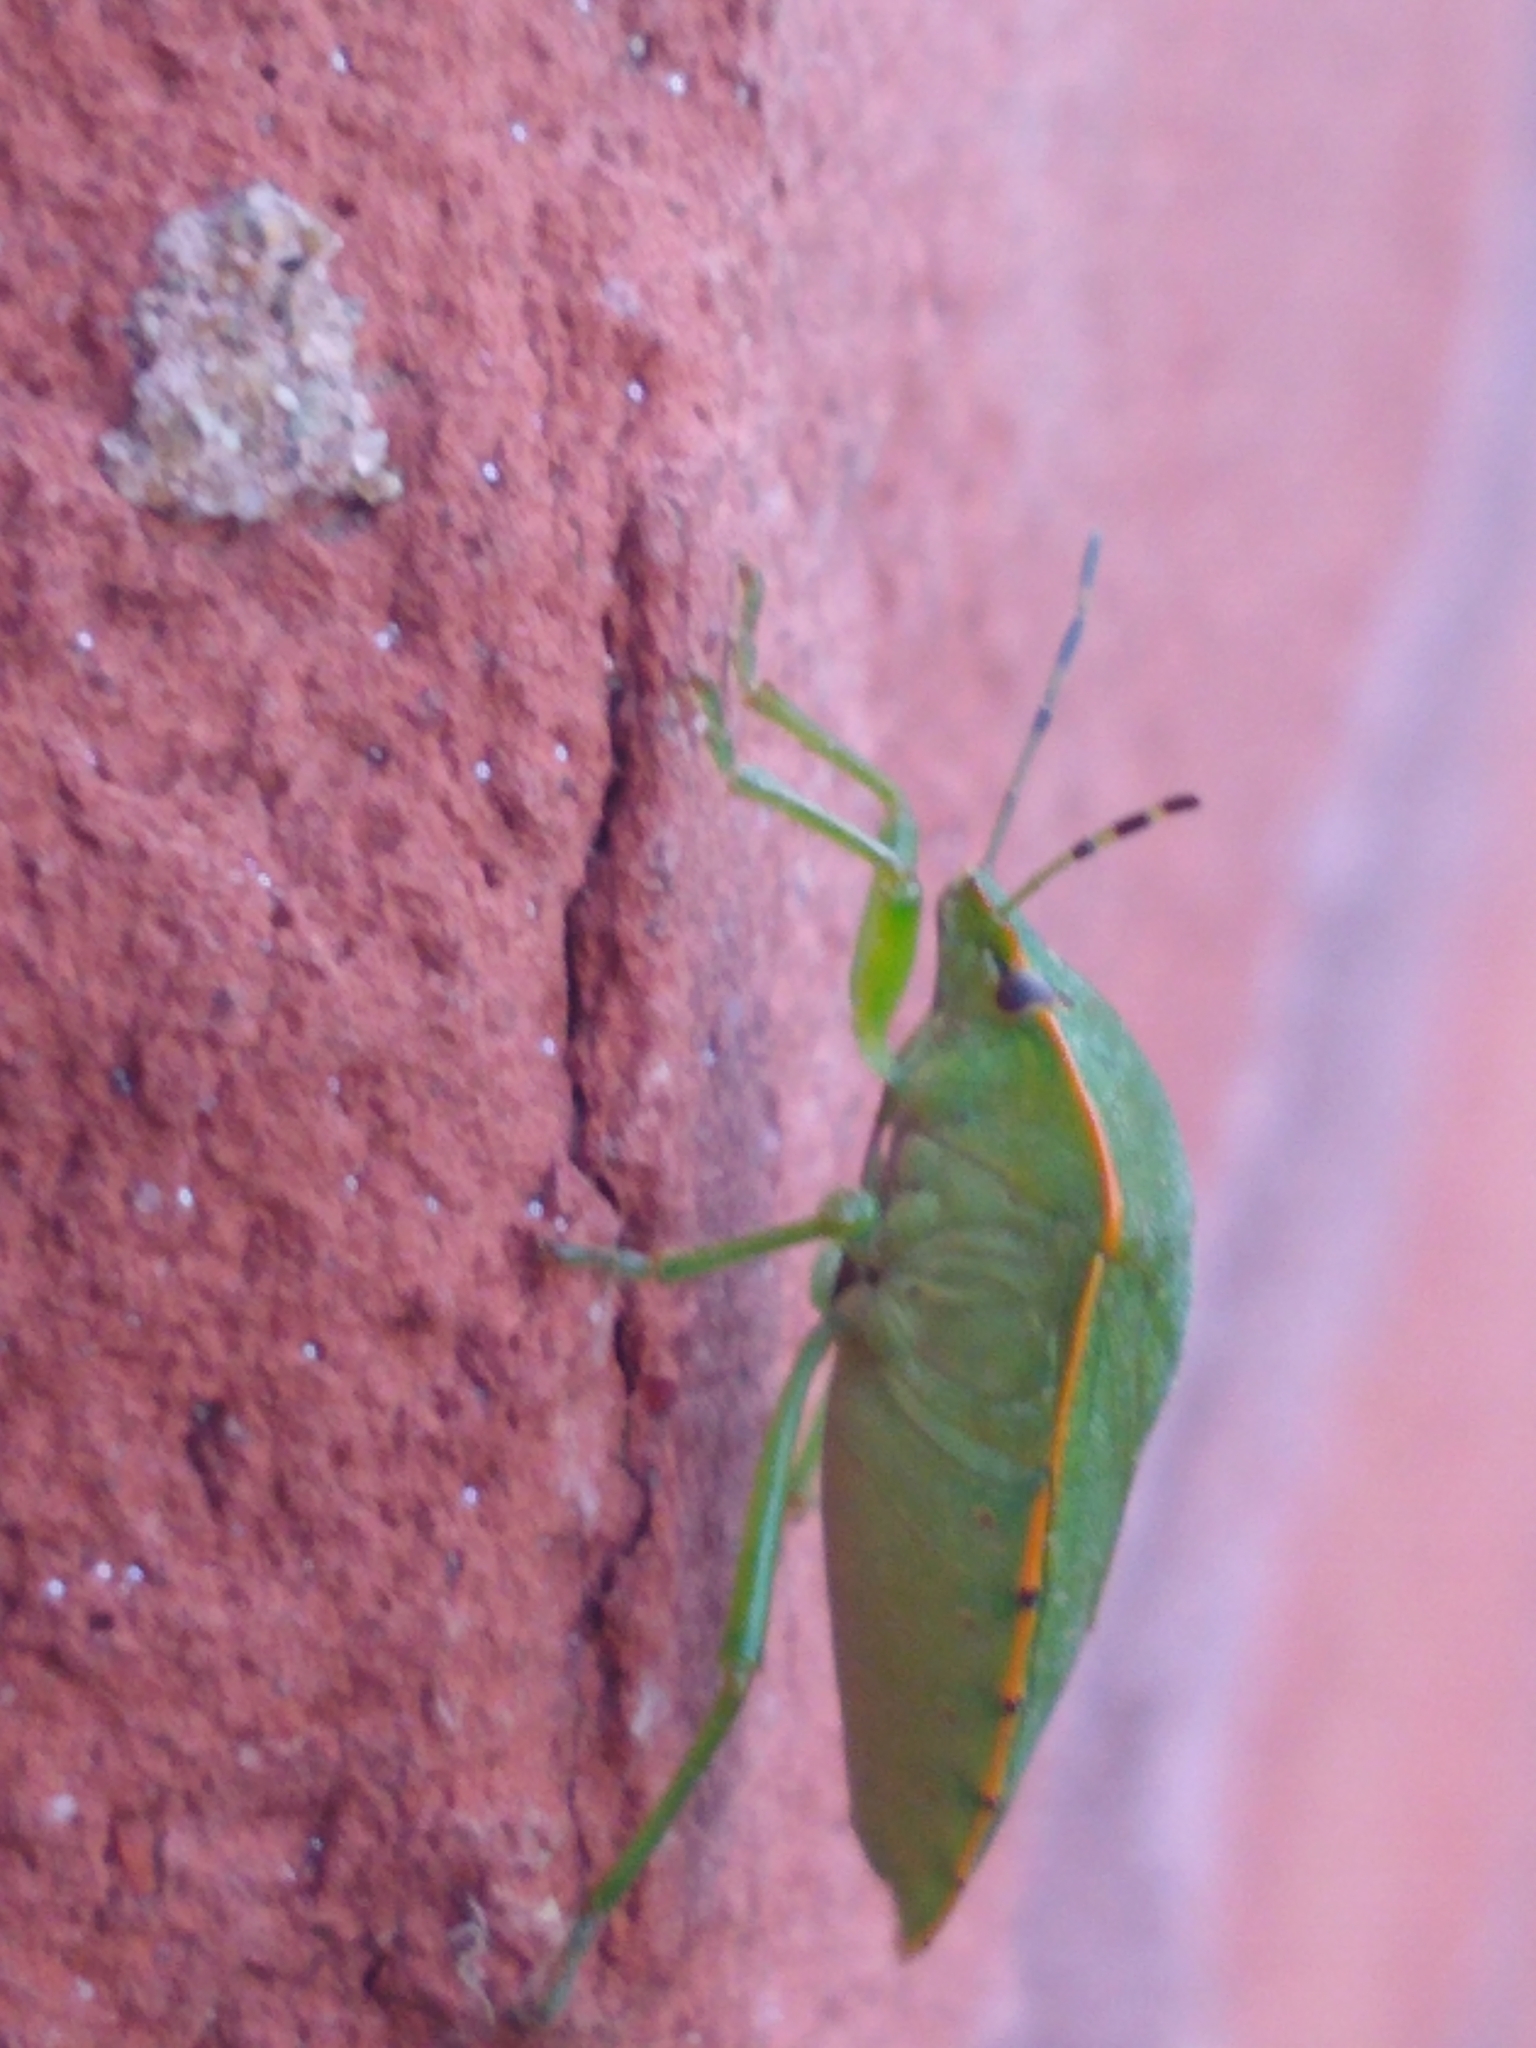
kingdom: Animalia
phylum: Arthropoda
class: Insecta
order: Hemiptera
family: Pentatomidae
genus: Chinavia
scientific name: Chinavia hilaris
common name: Green stink bug
